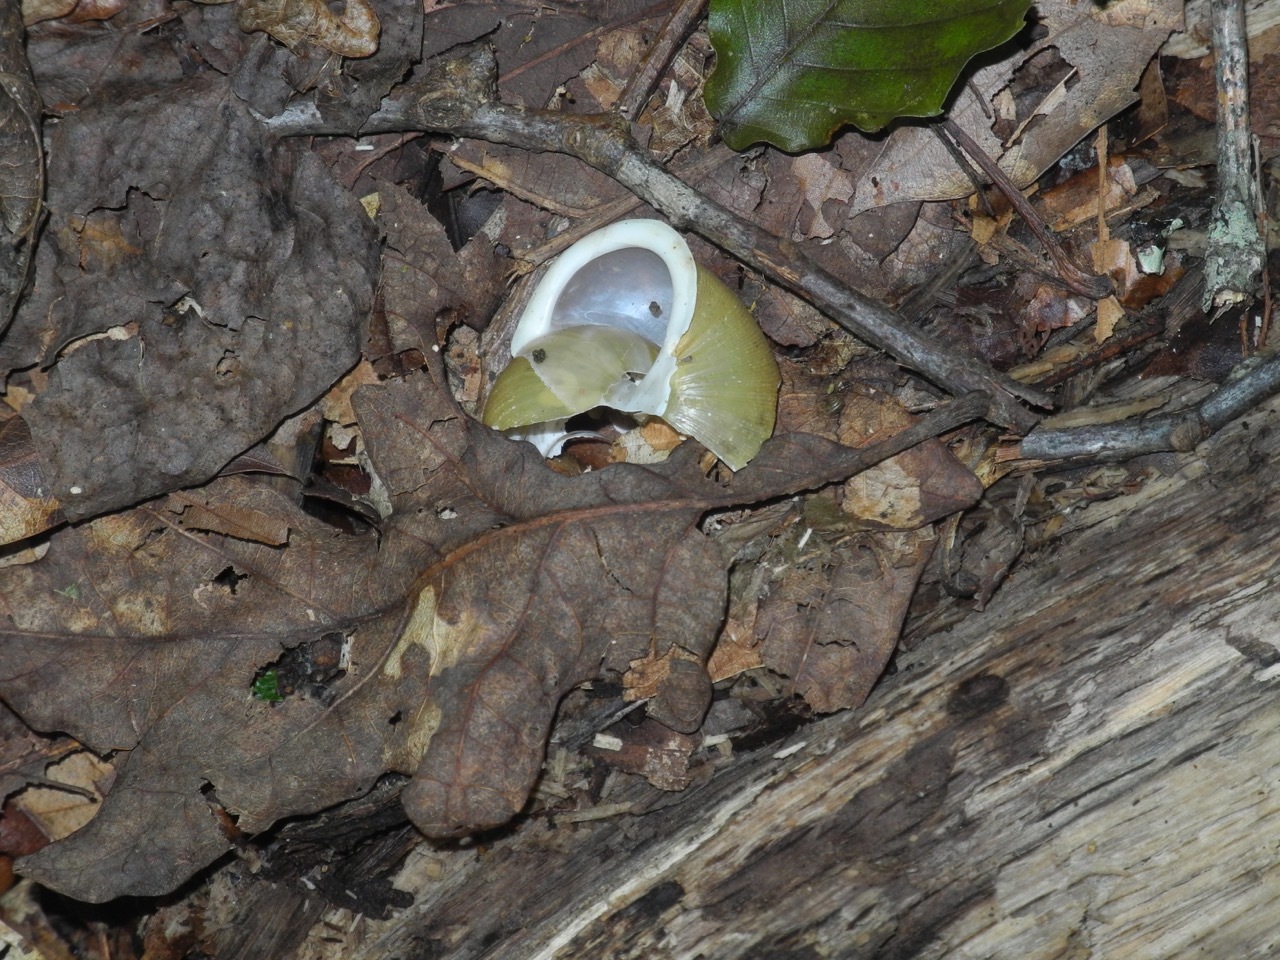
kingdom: Animalia
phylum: Mollusca
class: Gastropoda
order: Stylommatophora
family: Polygyridae
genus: Neohelix
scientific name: Neohelix major
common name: Southeastern whitelip
